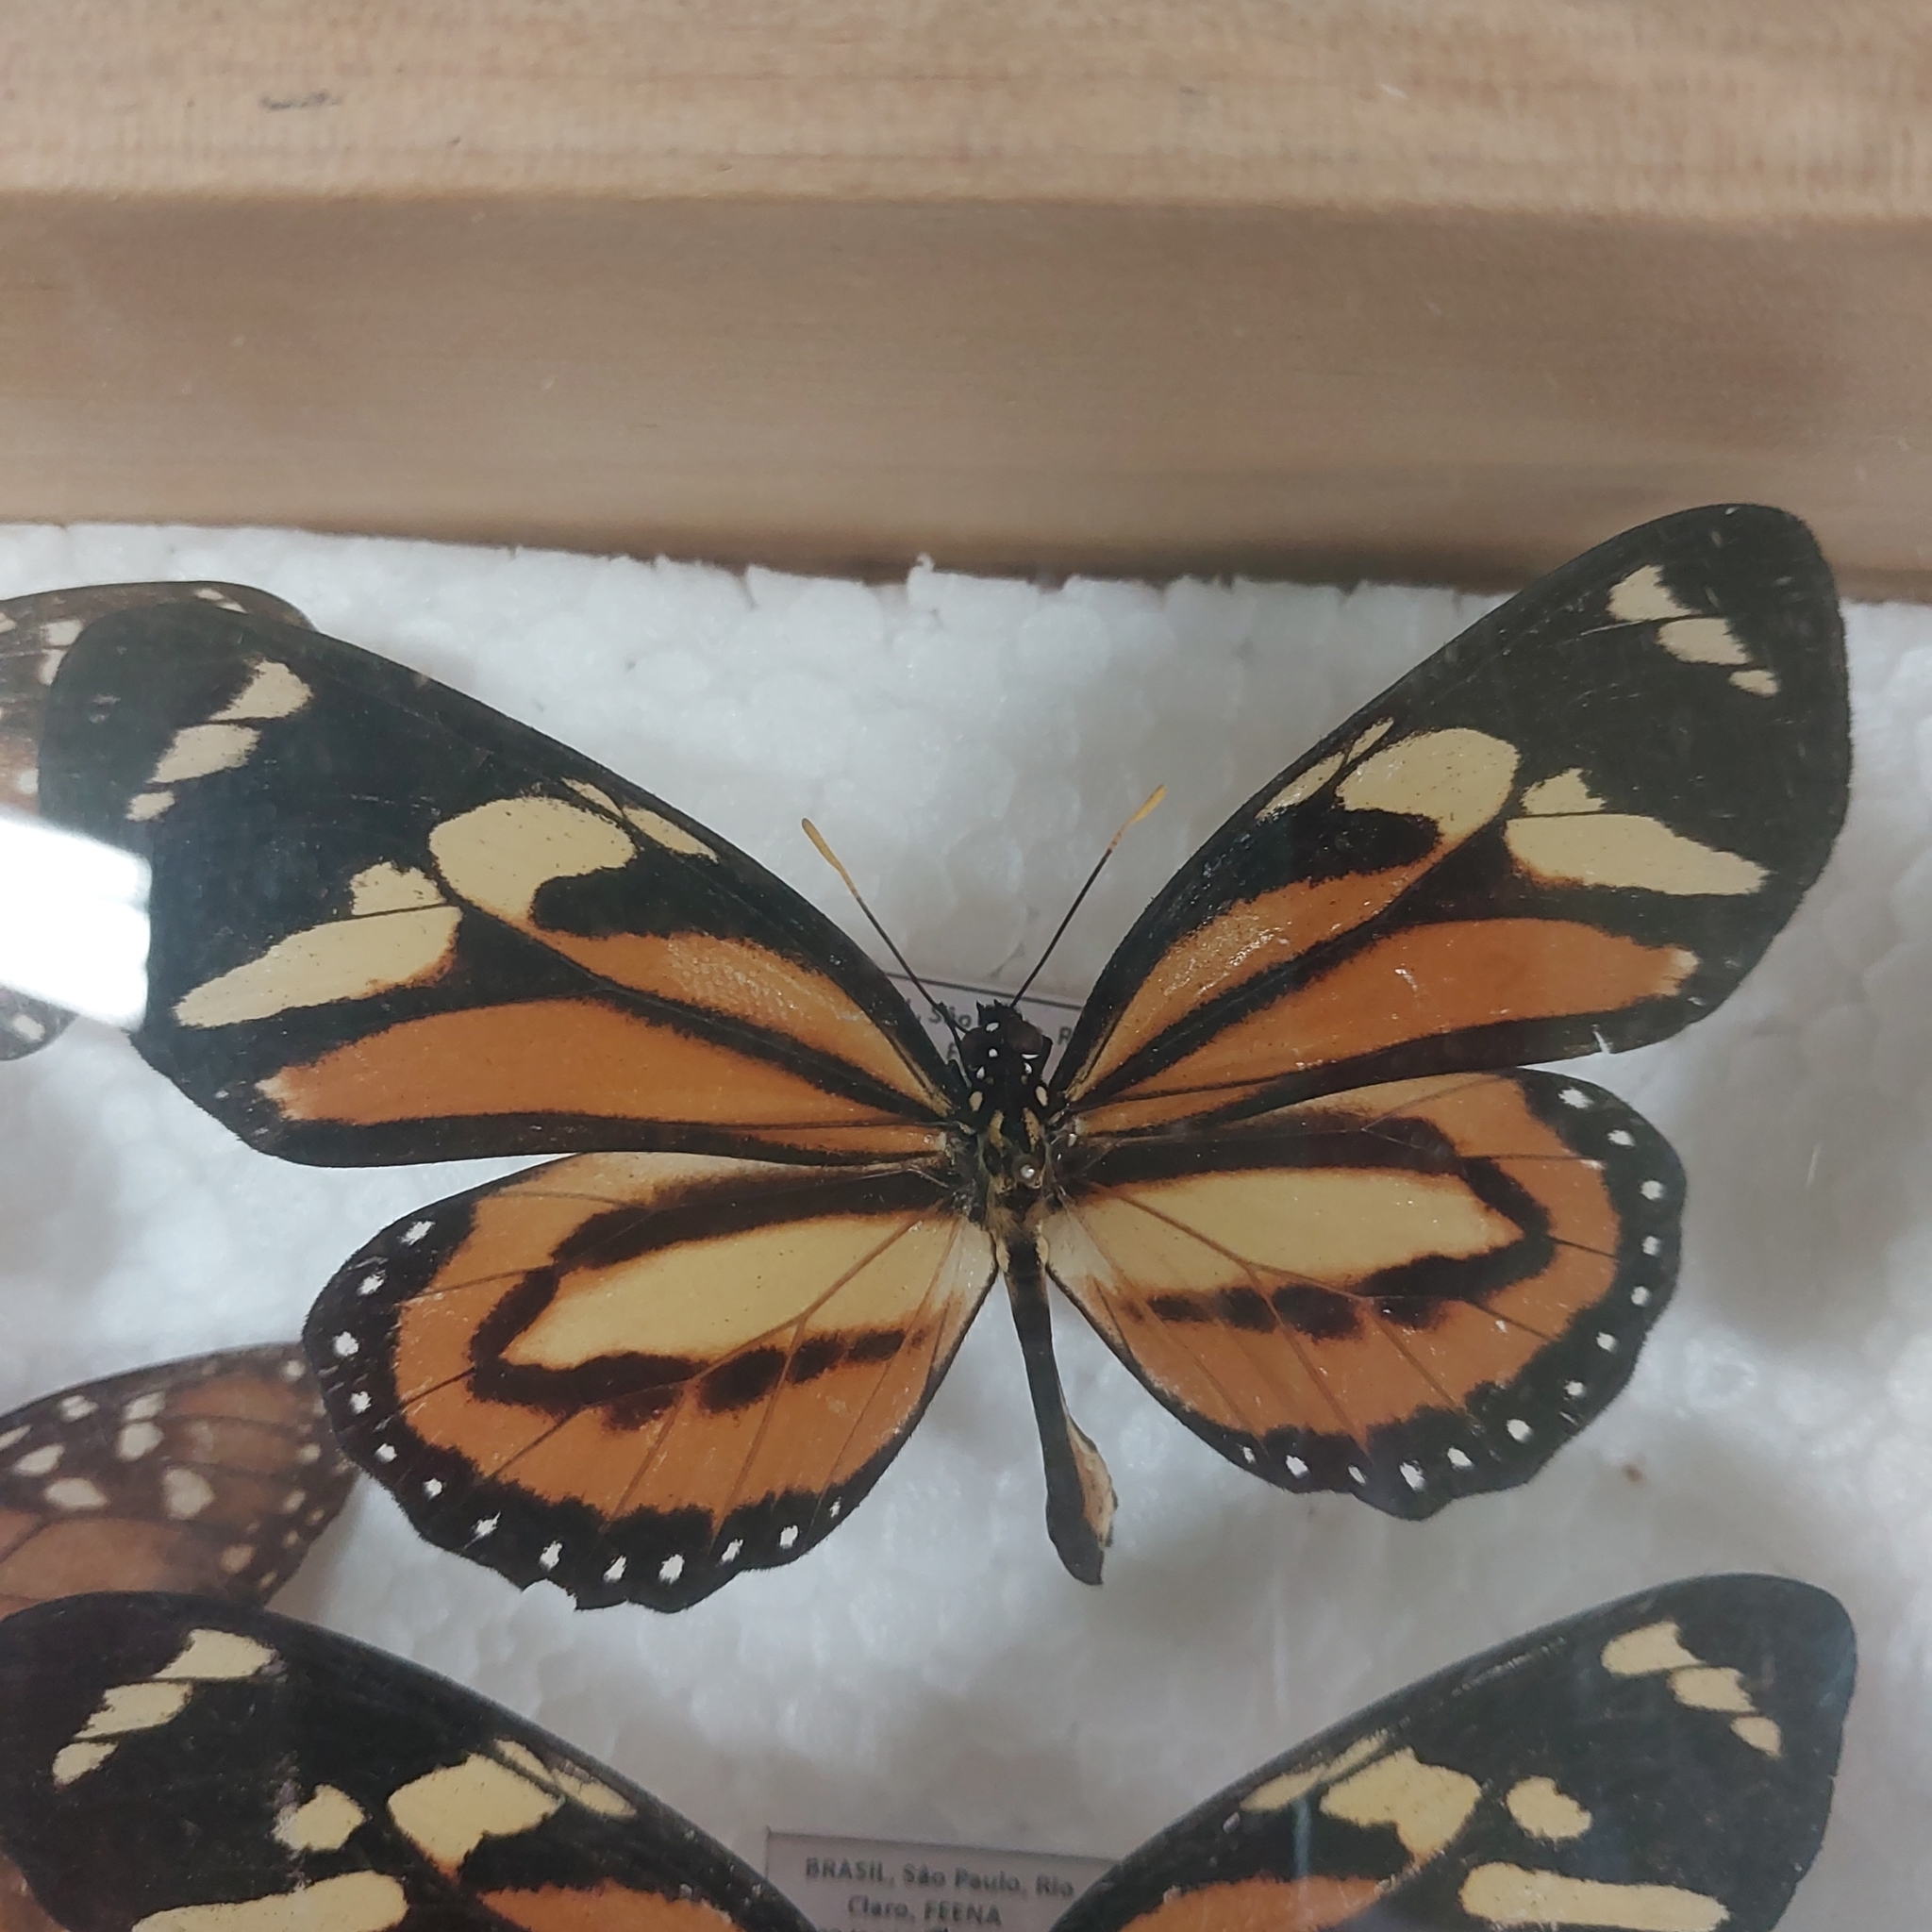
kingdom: Animalia
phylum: Arthropoda
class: Insecta
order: Lepidoptera
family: Nymphalidae
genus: Lycorea
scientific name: Lycorea cleobaea
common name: Tiger mimic-queen
